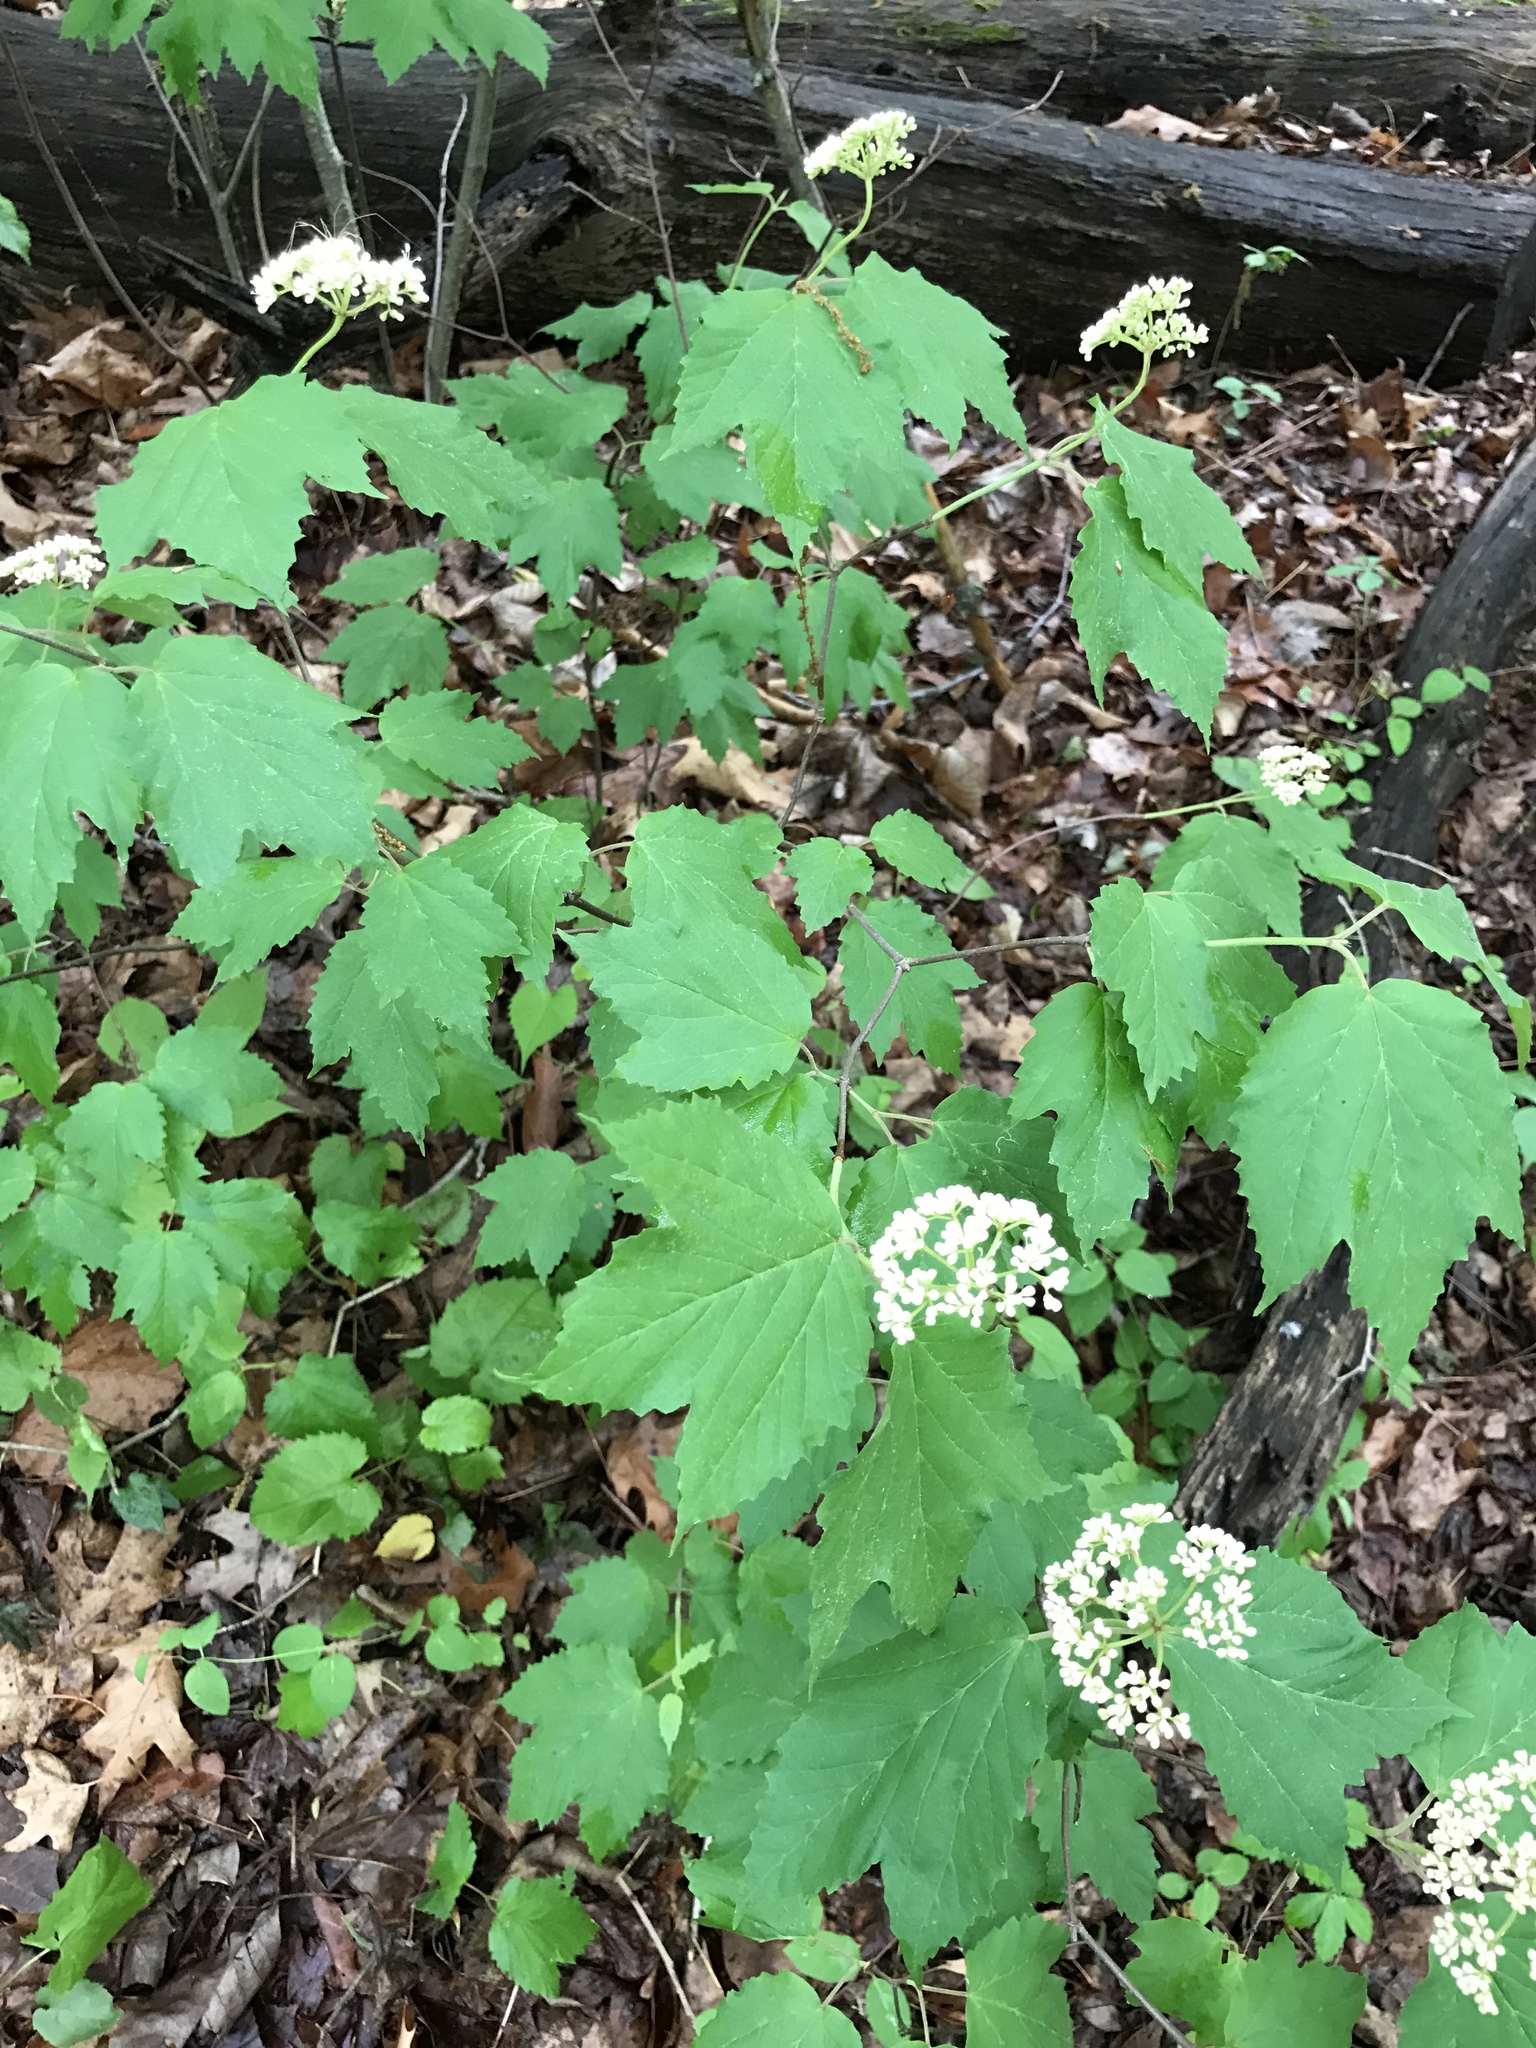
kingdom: Plantae
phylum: Tracheophyta
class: Magnoliopsida
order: Dipsacales
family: Viburnaceae
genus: Viburnum
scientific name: Viburnum acerifolium
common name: Dockmackie
